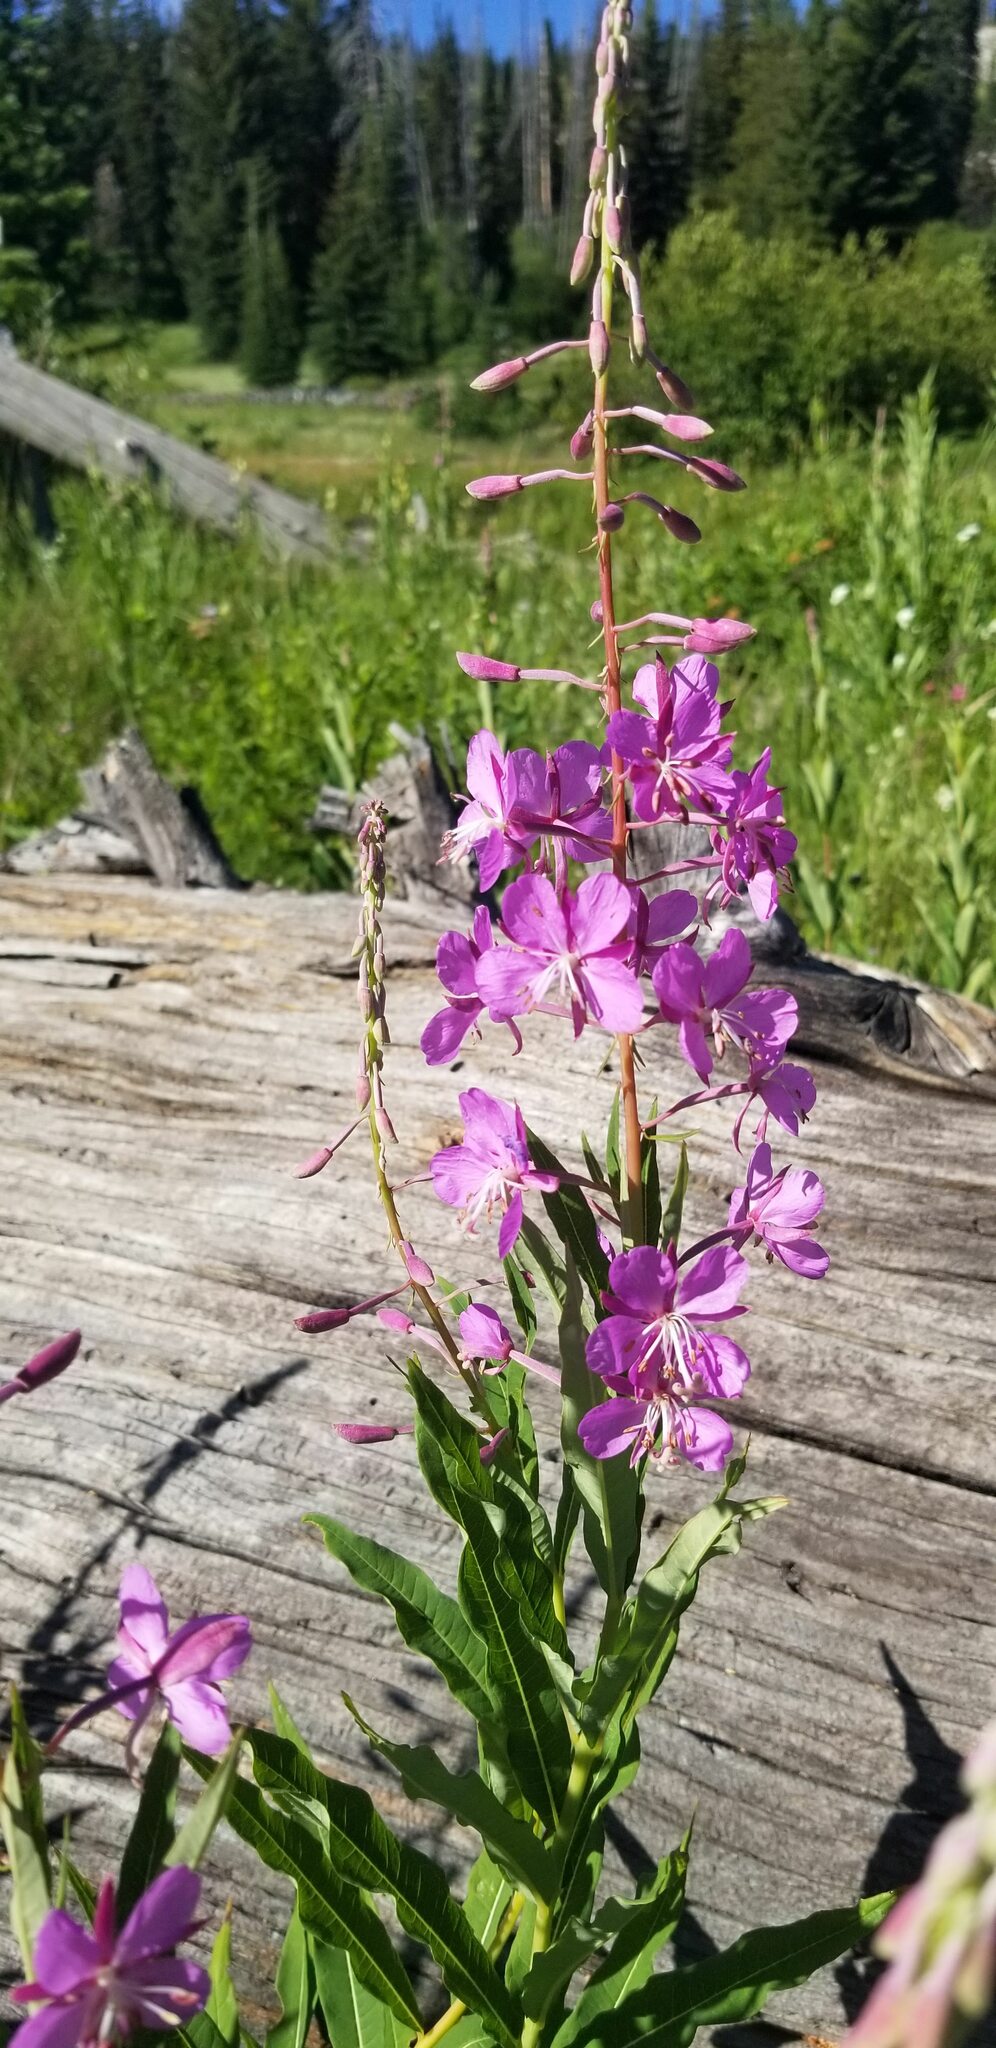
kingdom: Plantae
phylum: Tracheophyta
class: Magnoliopsida
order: Myrtales
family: Onagraceae
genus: Chamaenerion
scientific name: Chamaenerion angustifolium
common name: Fireweed
